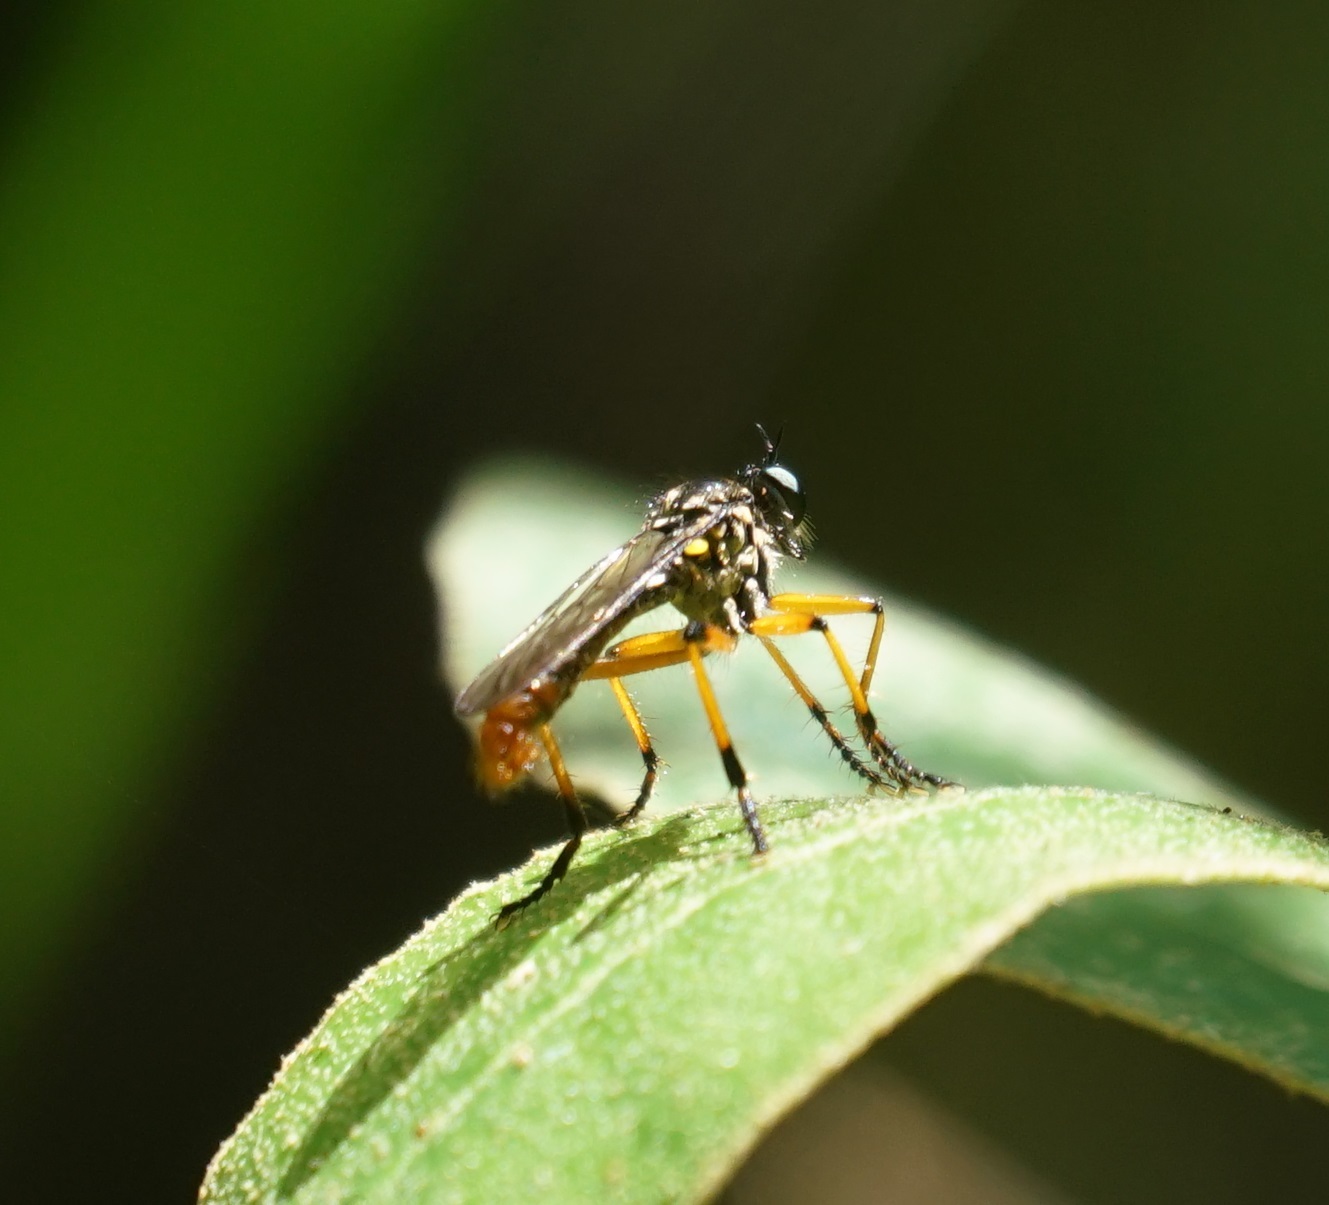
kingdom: Animalia
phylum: Arthropoda
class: Insecta
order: Diptera
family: Asilidae
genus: Aplestobroma
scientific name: Aplestobroma avidum
